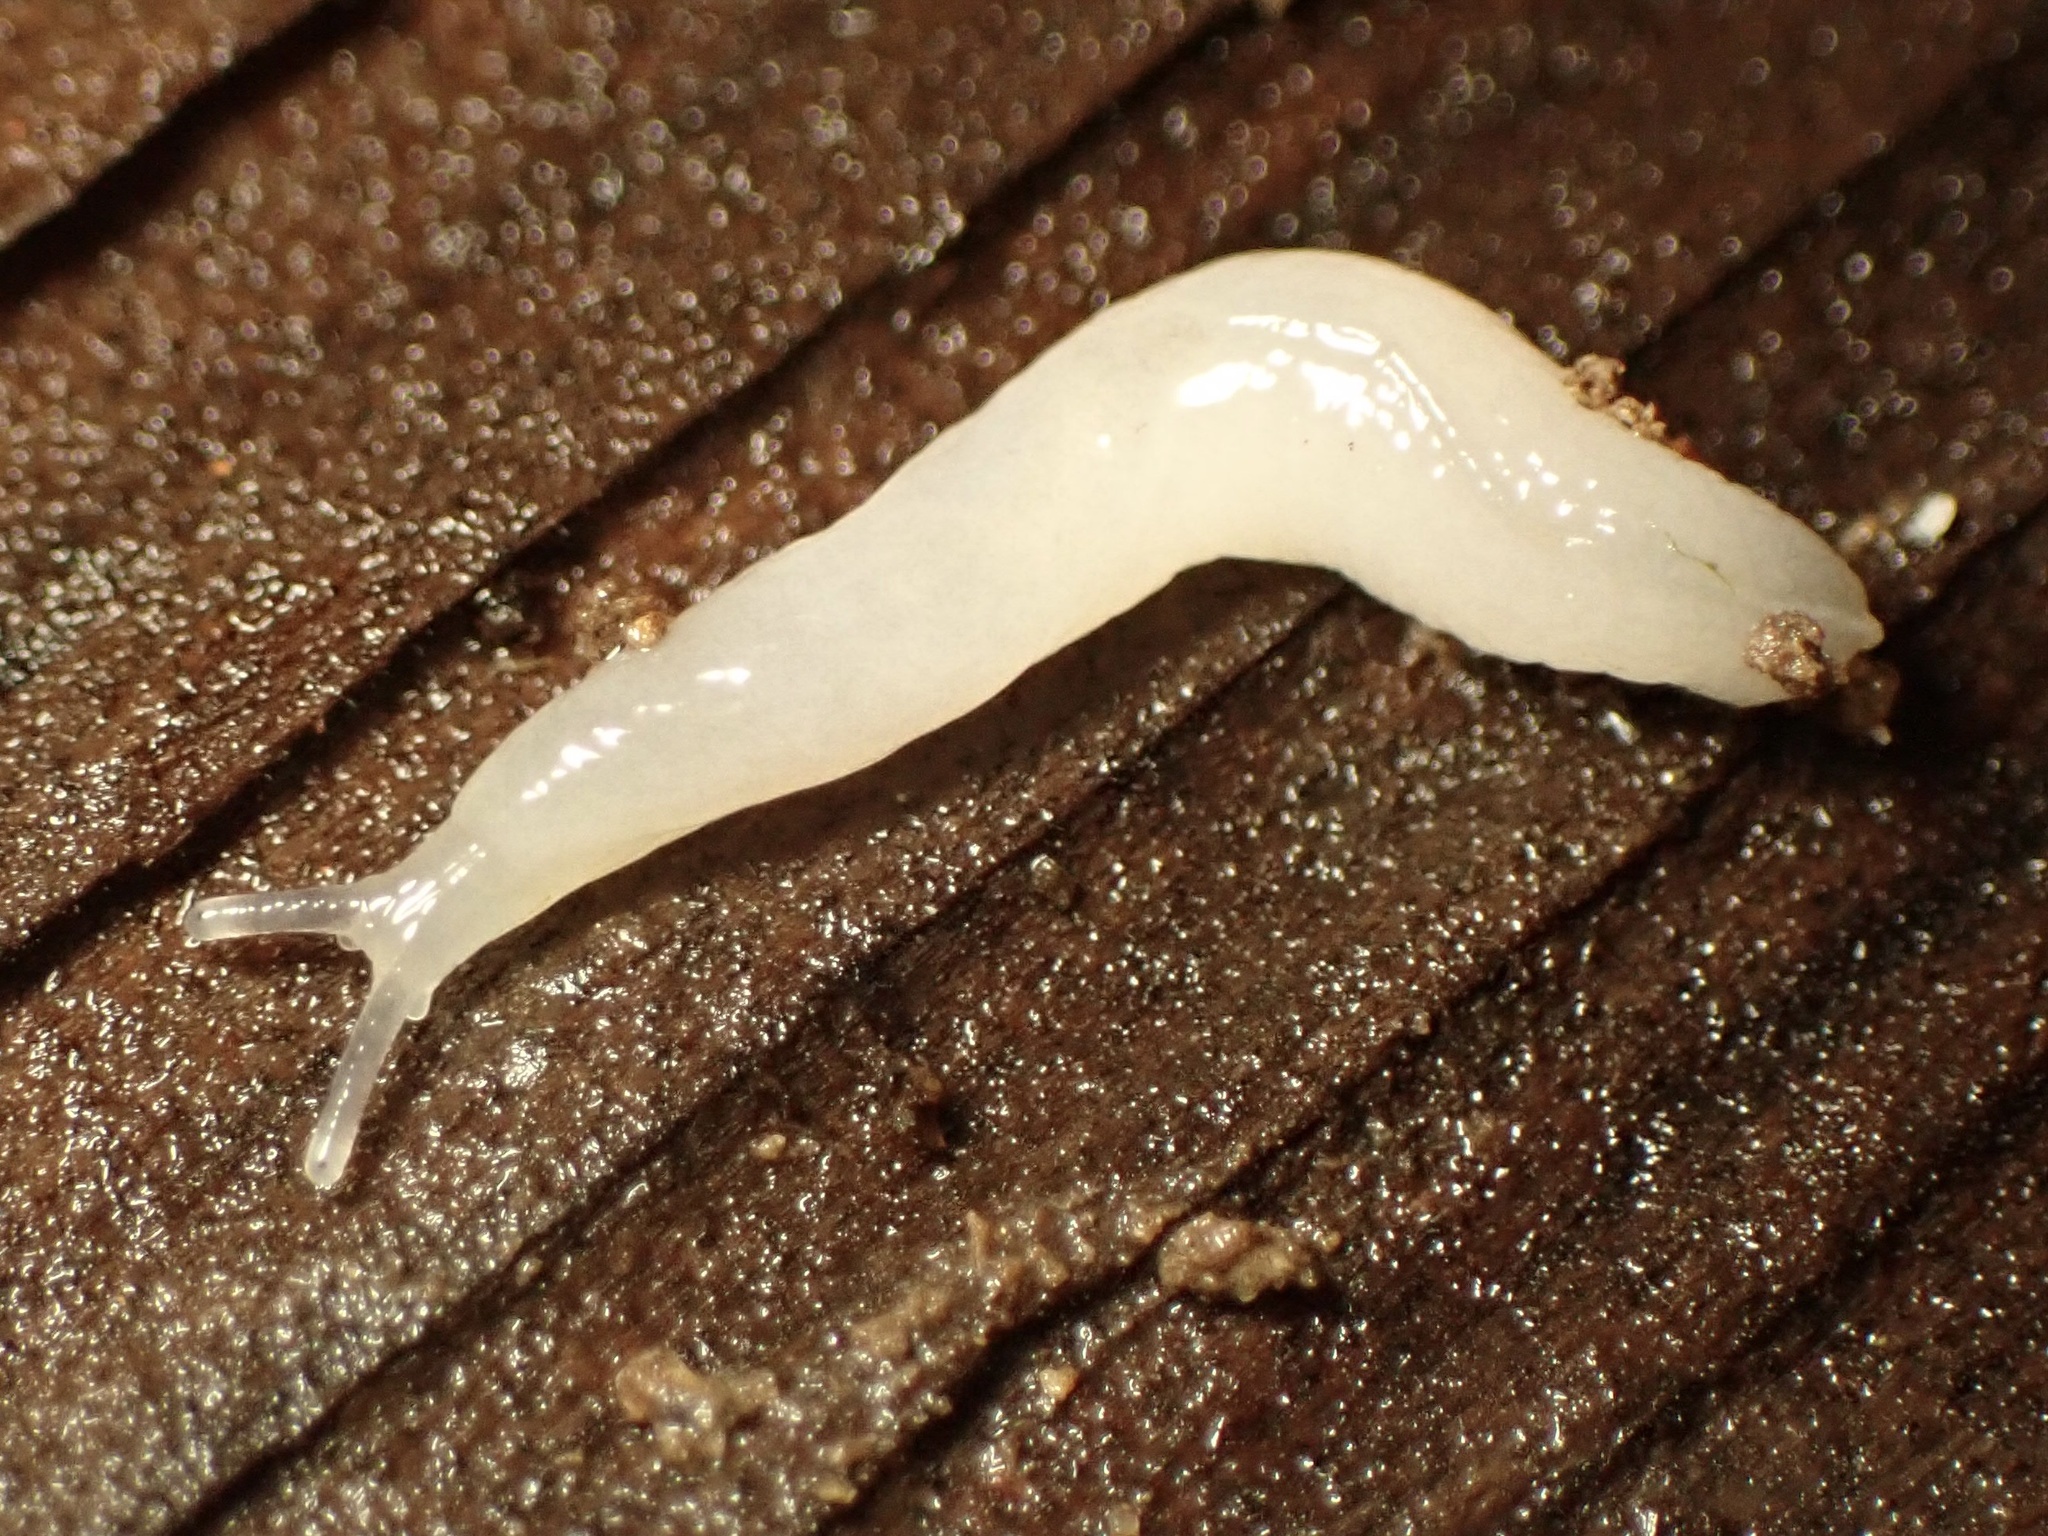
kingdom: Animalia
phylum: Mollusca
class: Gastropoda
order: Stylommatophora
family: Boettgerillidae
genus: Boettgerilla
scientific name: Boettgerilla pallens
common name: Worm slug
